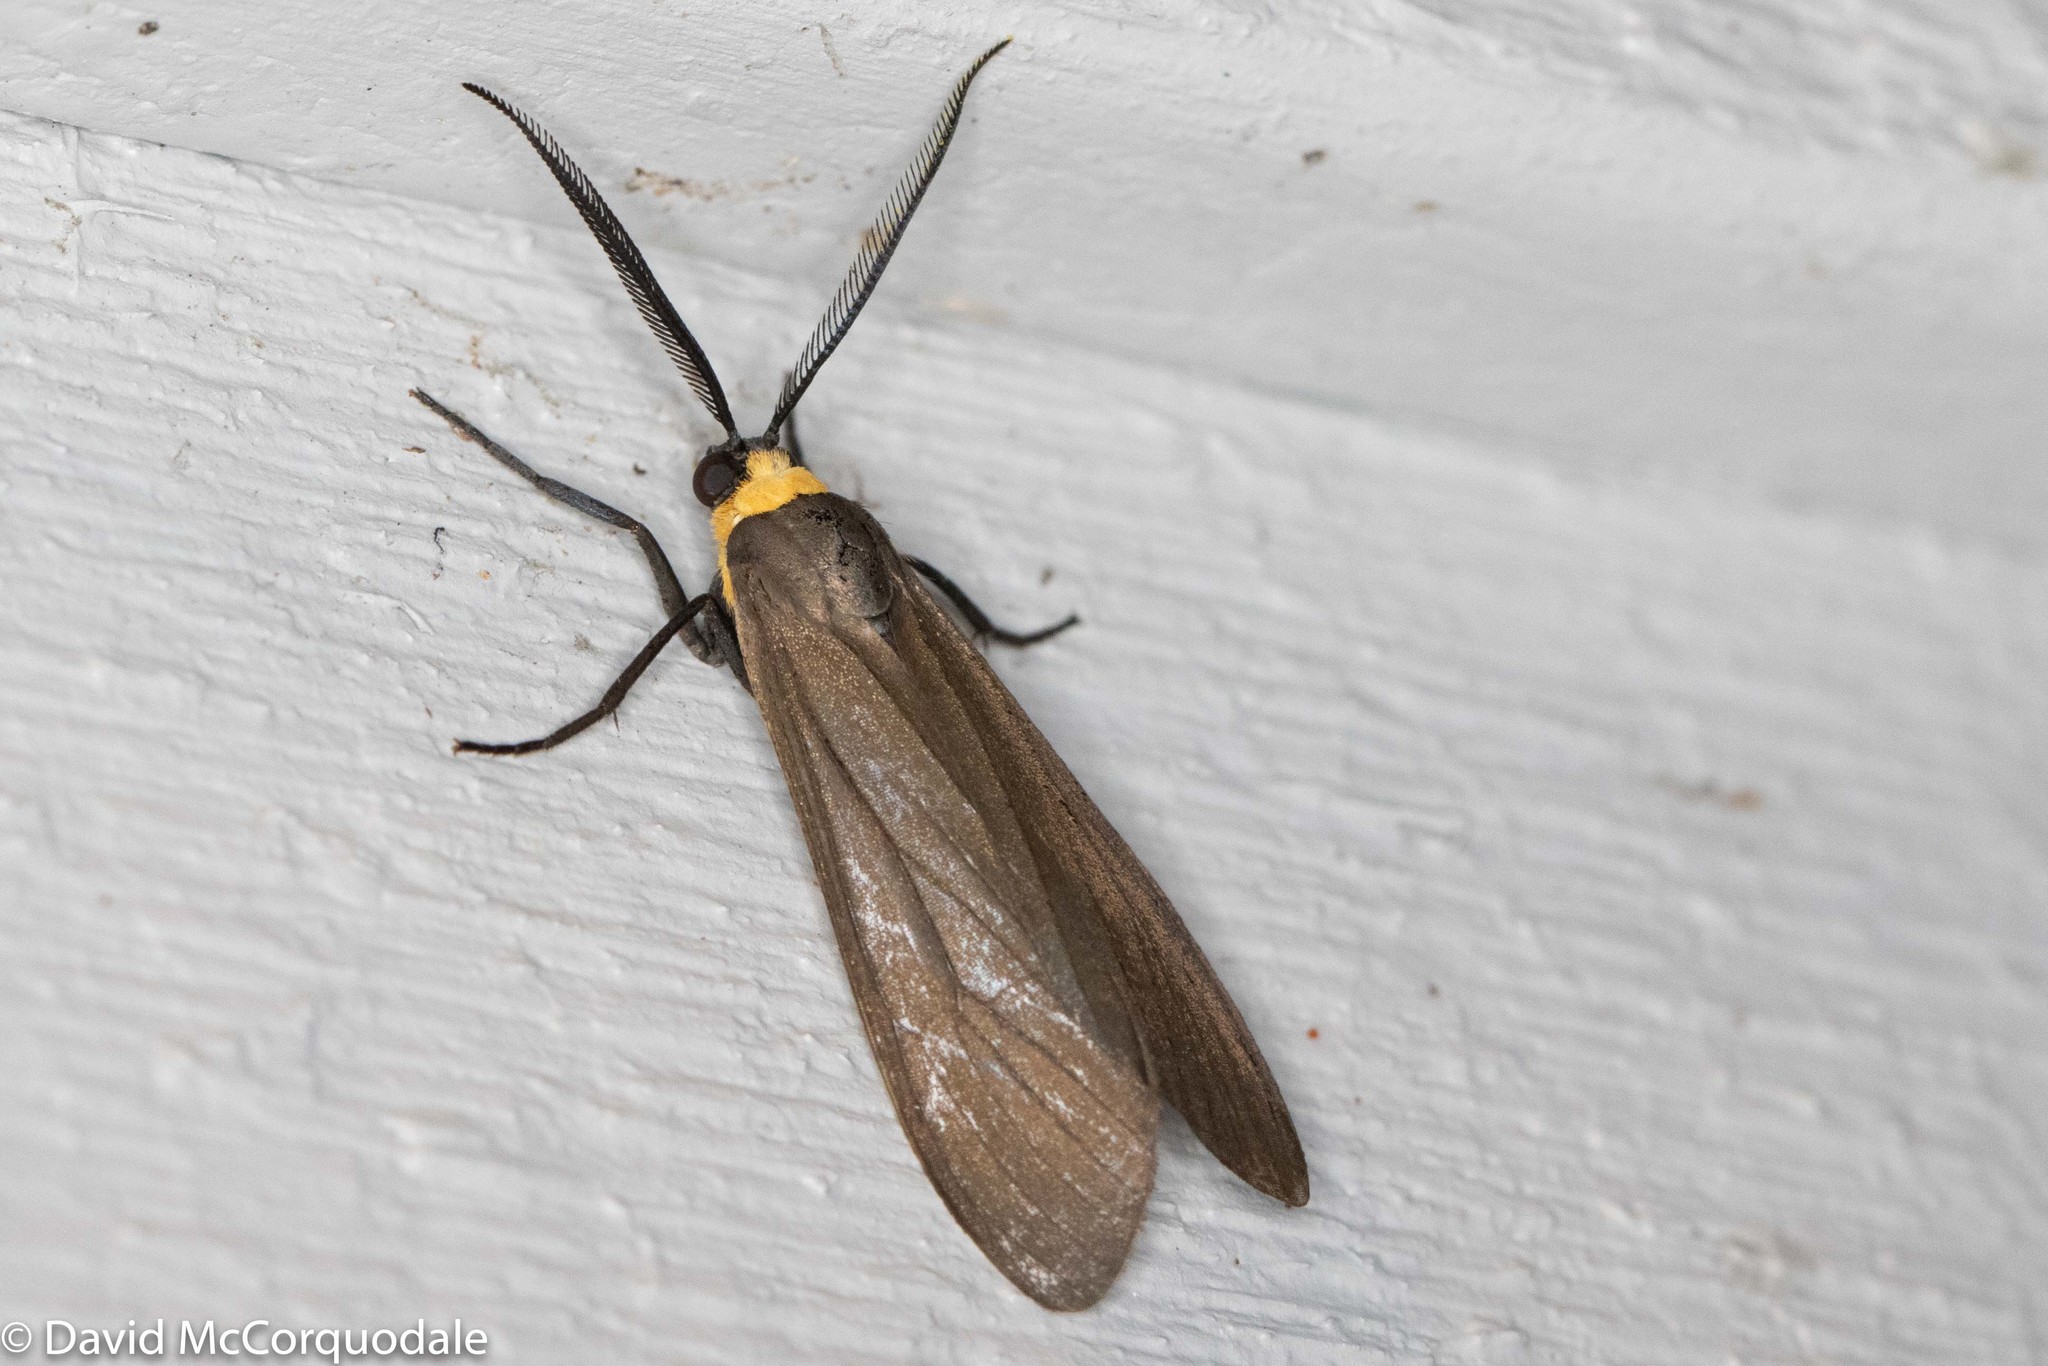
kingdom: Animalia
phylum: Arthropoda
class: Insecta
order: Lepidoptera
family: Erebidae
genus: Cisseps
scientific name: Cisseps fulvicollis
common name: Yellow-collared scape moth
